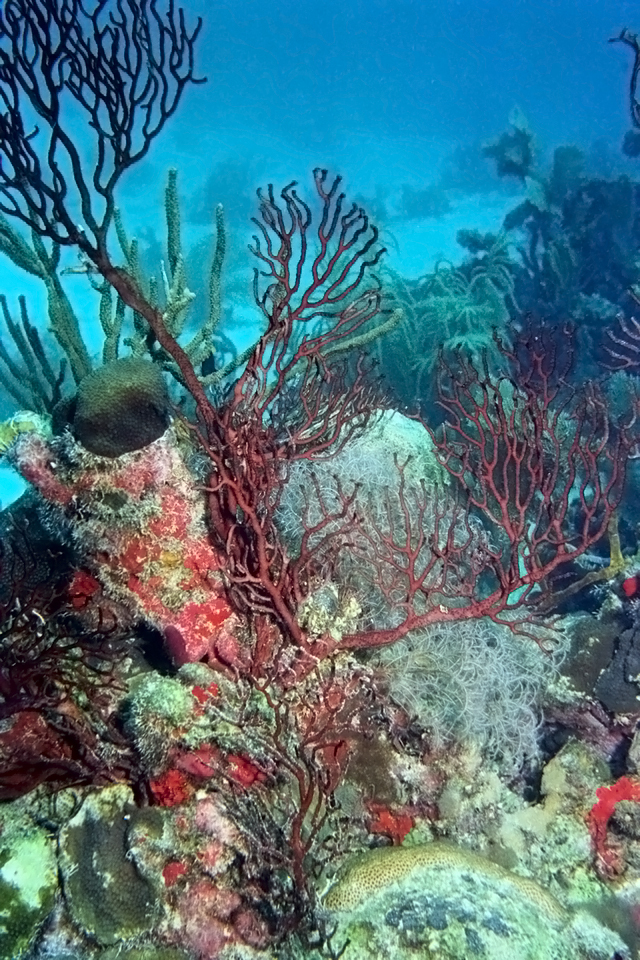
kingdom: Animalia
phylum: Cnidaria
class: Anthozoa
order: Malacalcyonacea
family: Melithaeidae
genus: Iciligorgia
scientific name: Iciligorgia schrammi
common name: Black sea fan
